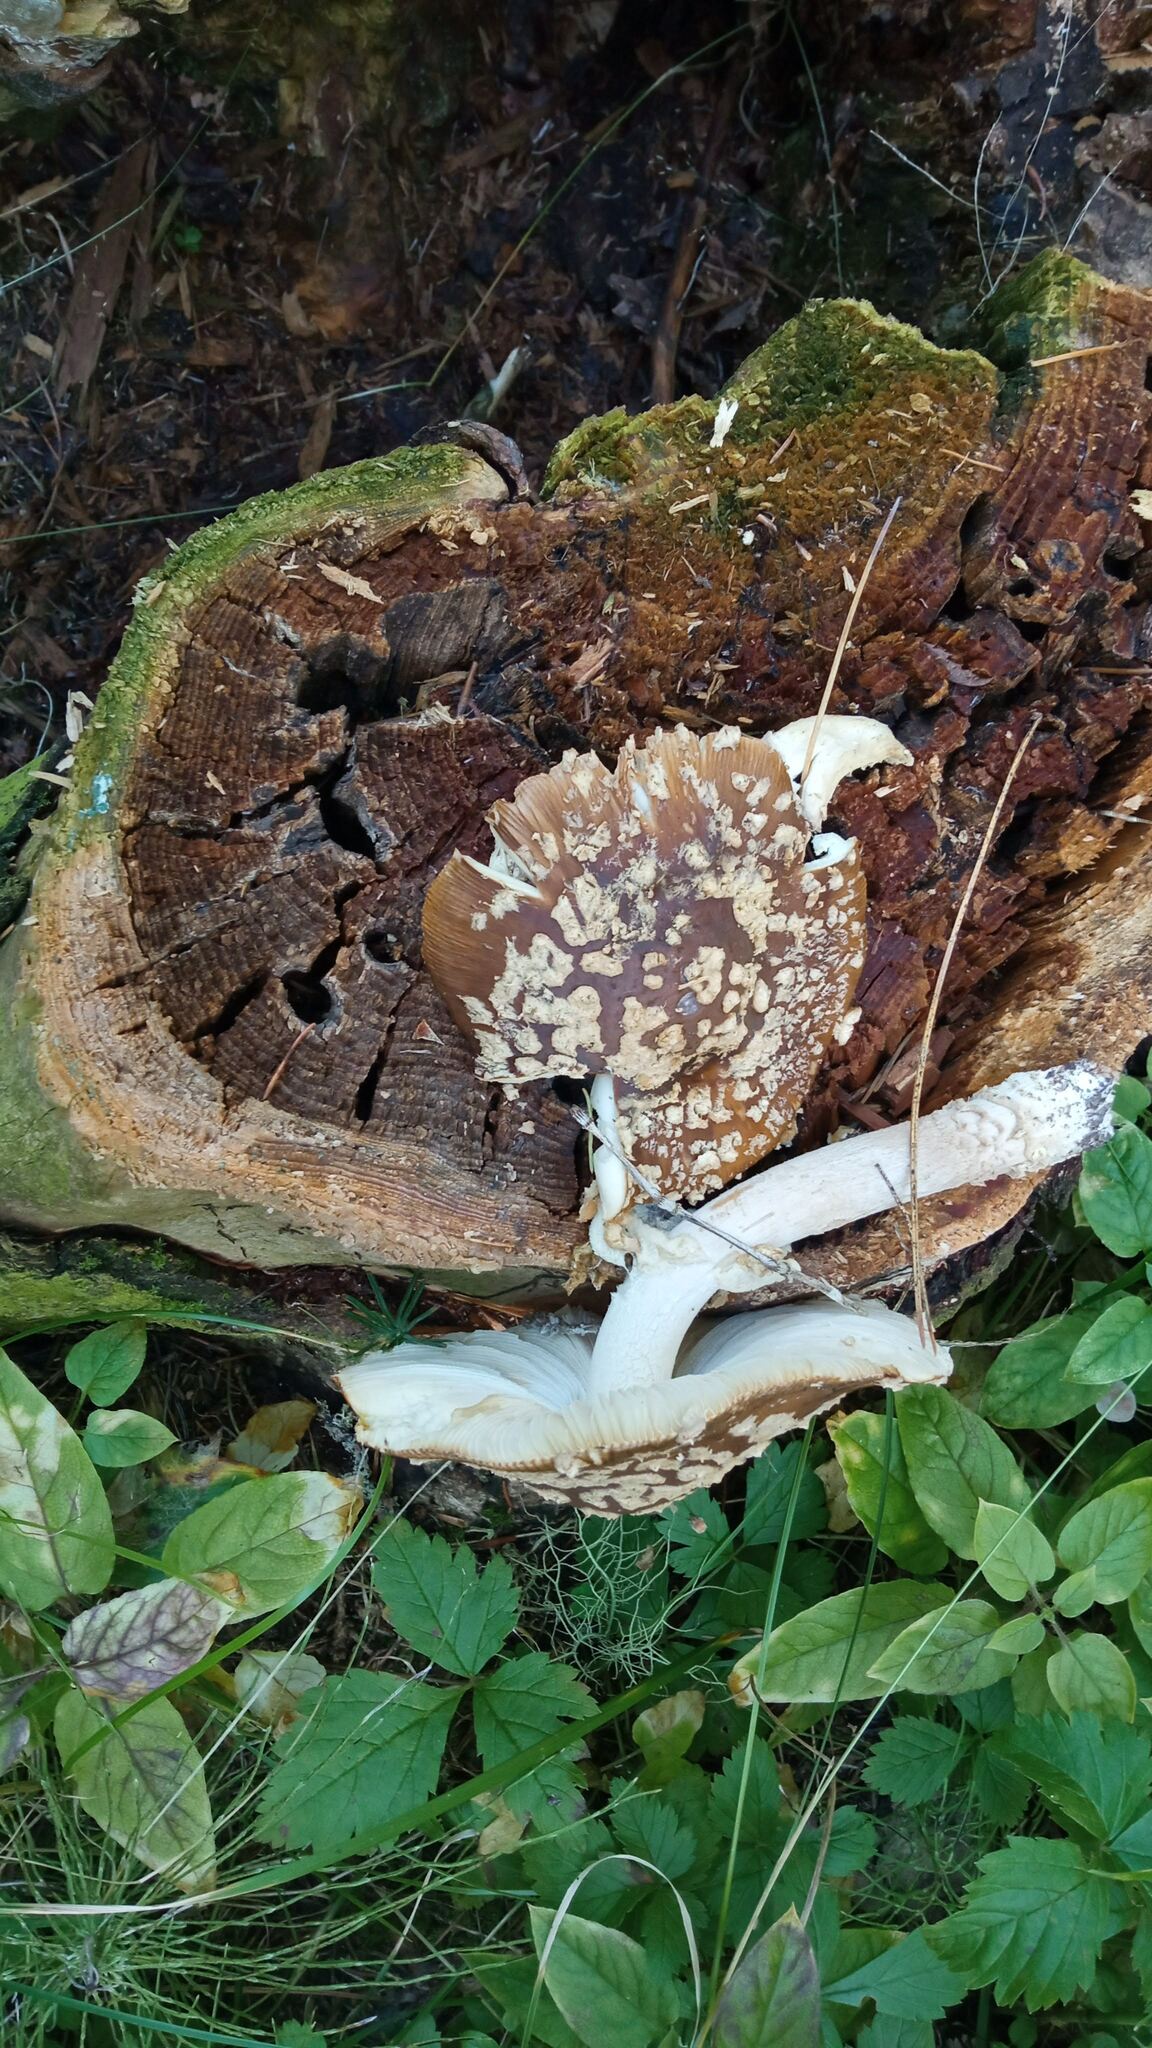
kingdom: Fungi
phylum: Basidiomycota
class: Agaricomycetes
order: Agaricales
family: Amanitaceae
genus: Amanita
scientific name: Amanita regalis
